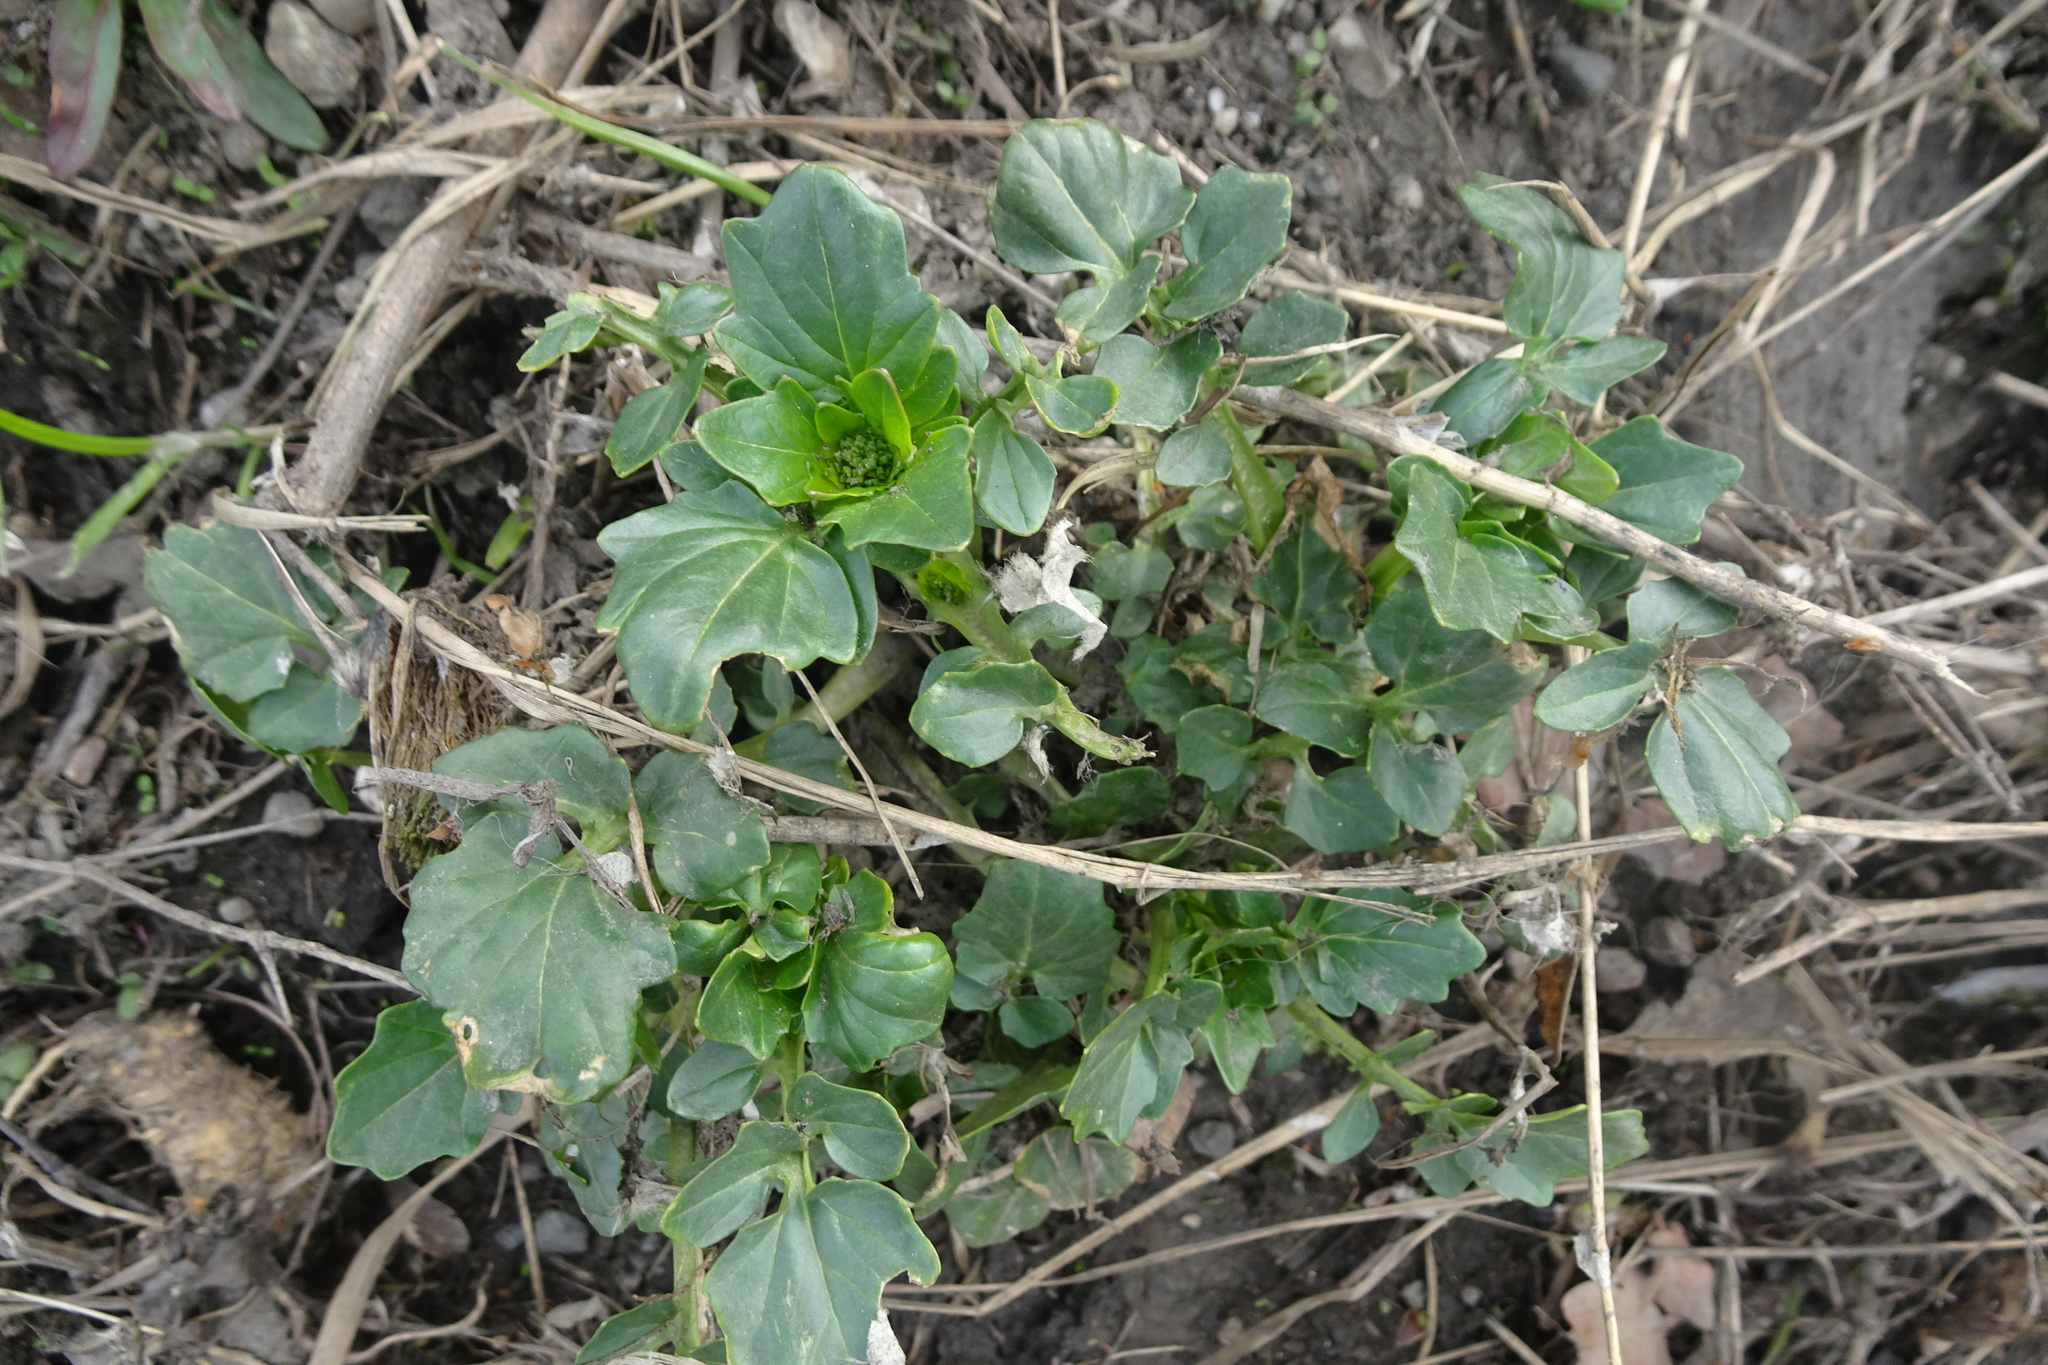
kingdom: Plantae
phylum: Tracheophyta
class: Magnoliopsida
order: Brassicales
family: Brassicaceae
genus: Barbarea
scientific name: Barbarea vulgaris
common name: Cressy-greens
